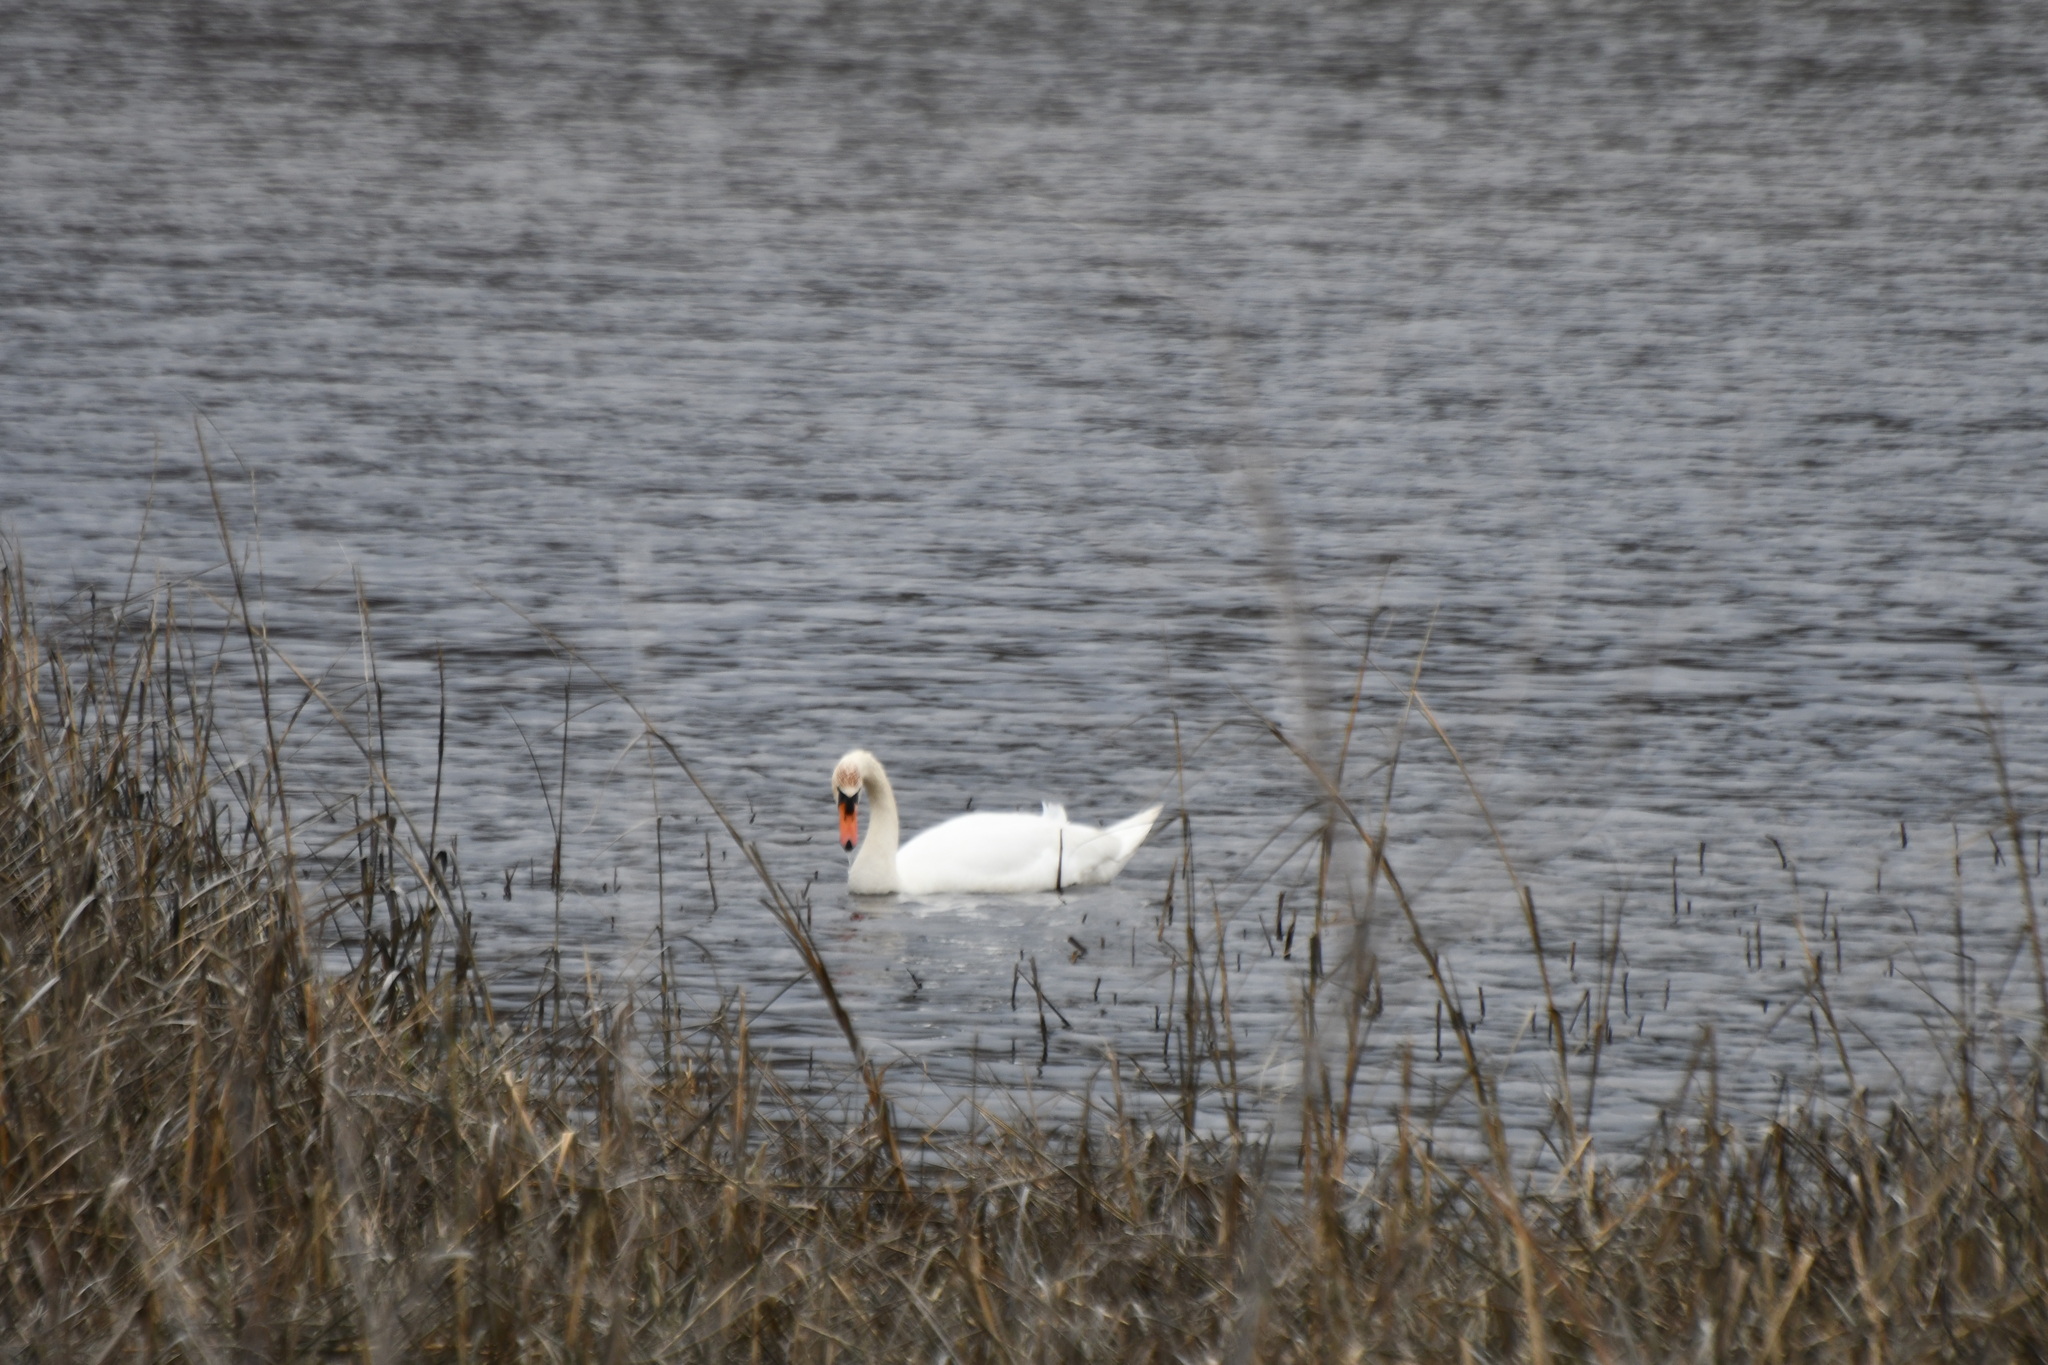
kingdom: Animalia
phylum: Chordata
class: Aves
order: Anseriformes
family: Anatidae
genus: Cygnus
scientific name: Cygnus olor
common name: Mute swan
